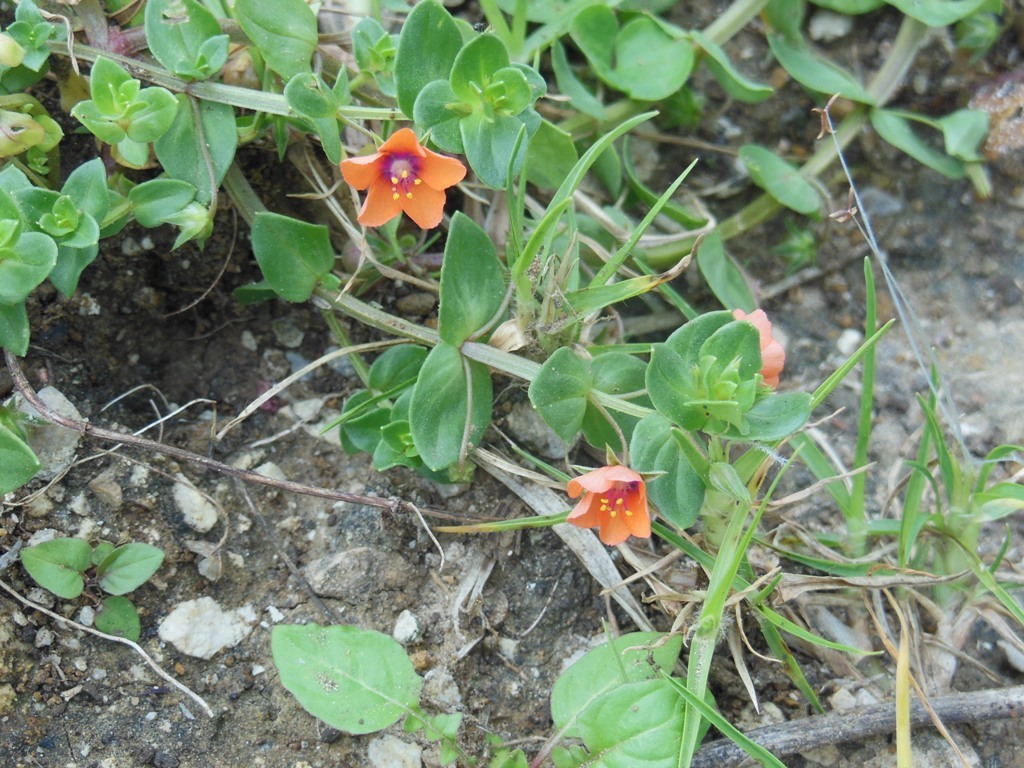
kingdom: Plantae
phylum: Tracheophyta
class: Magnoliopsida
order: Ericales
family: Primulaceae
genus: Lysimachia
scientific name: Lysimachia arvensis
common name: Scarlet pimpernel
